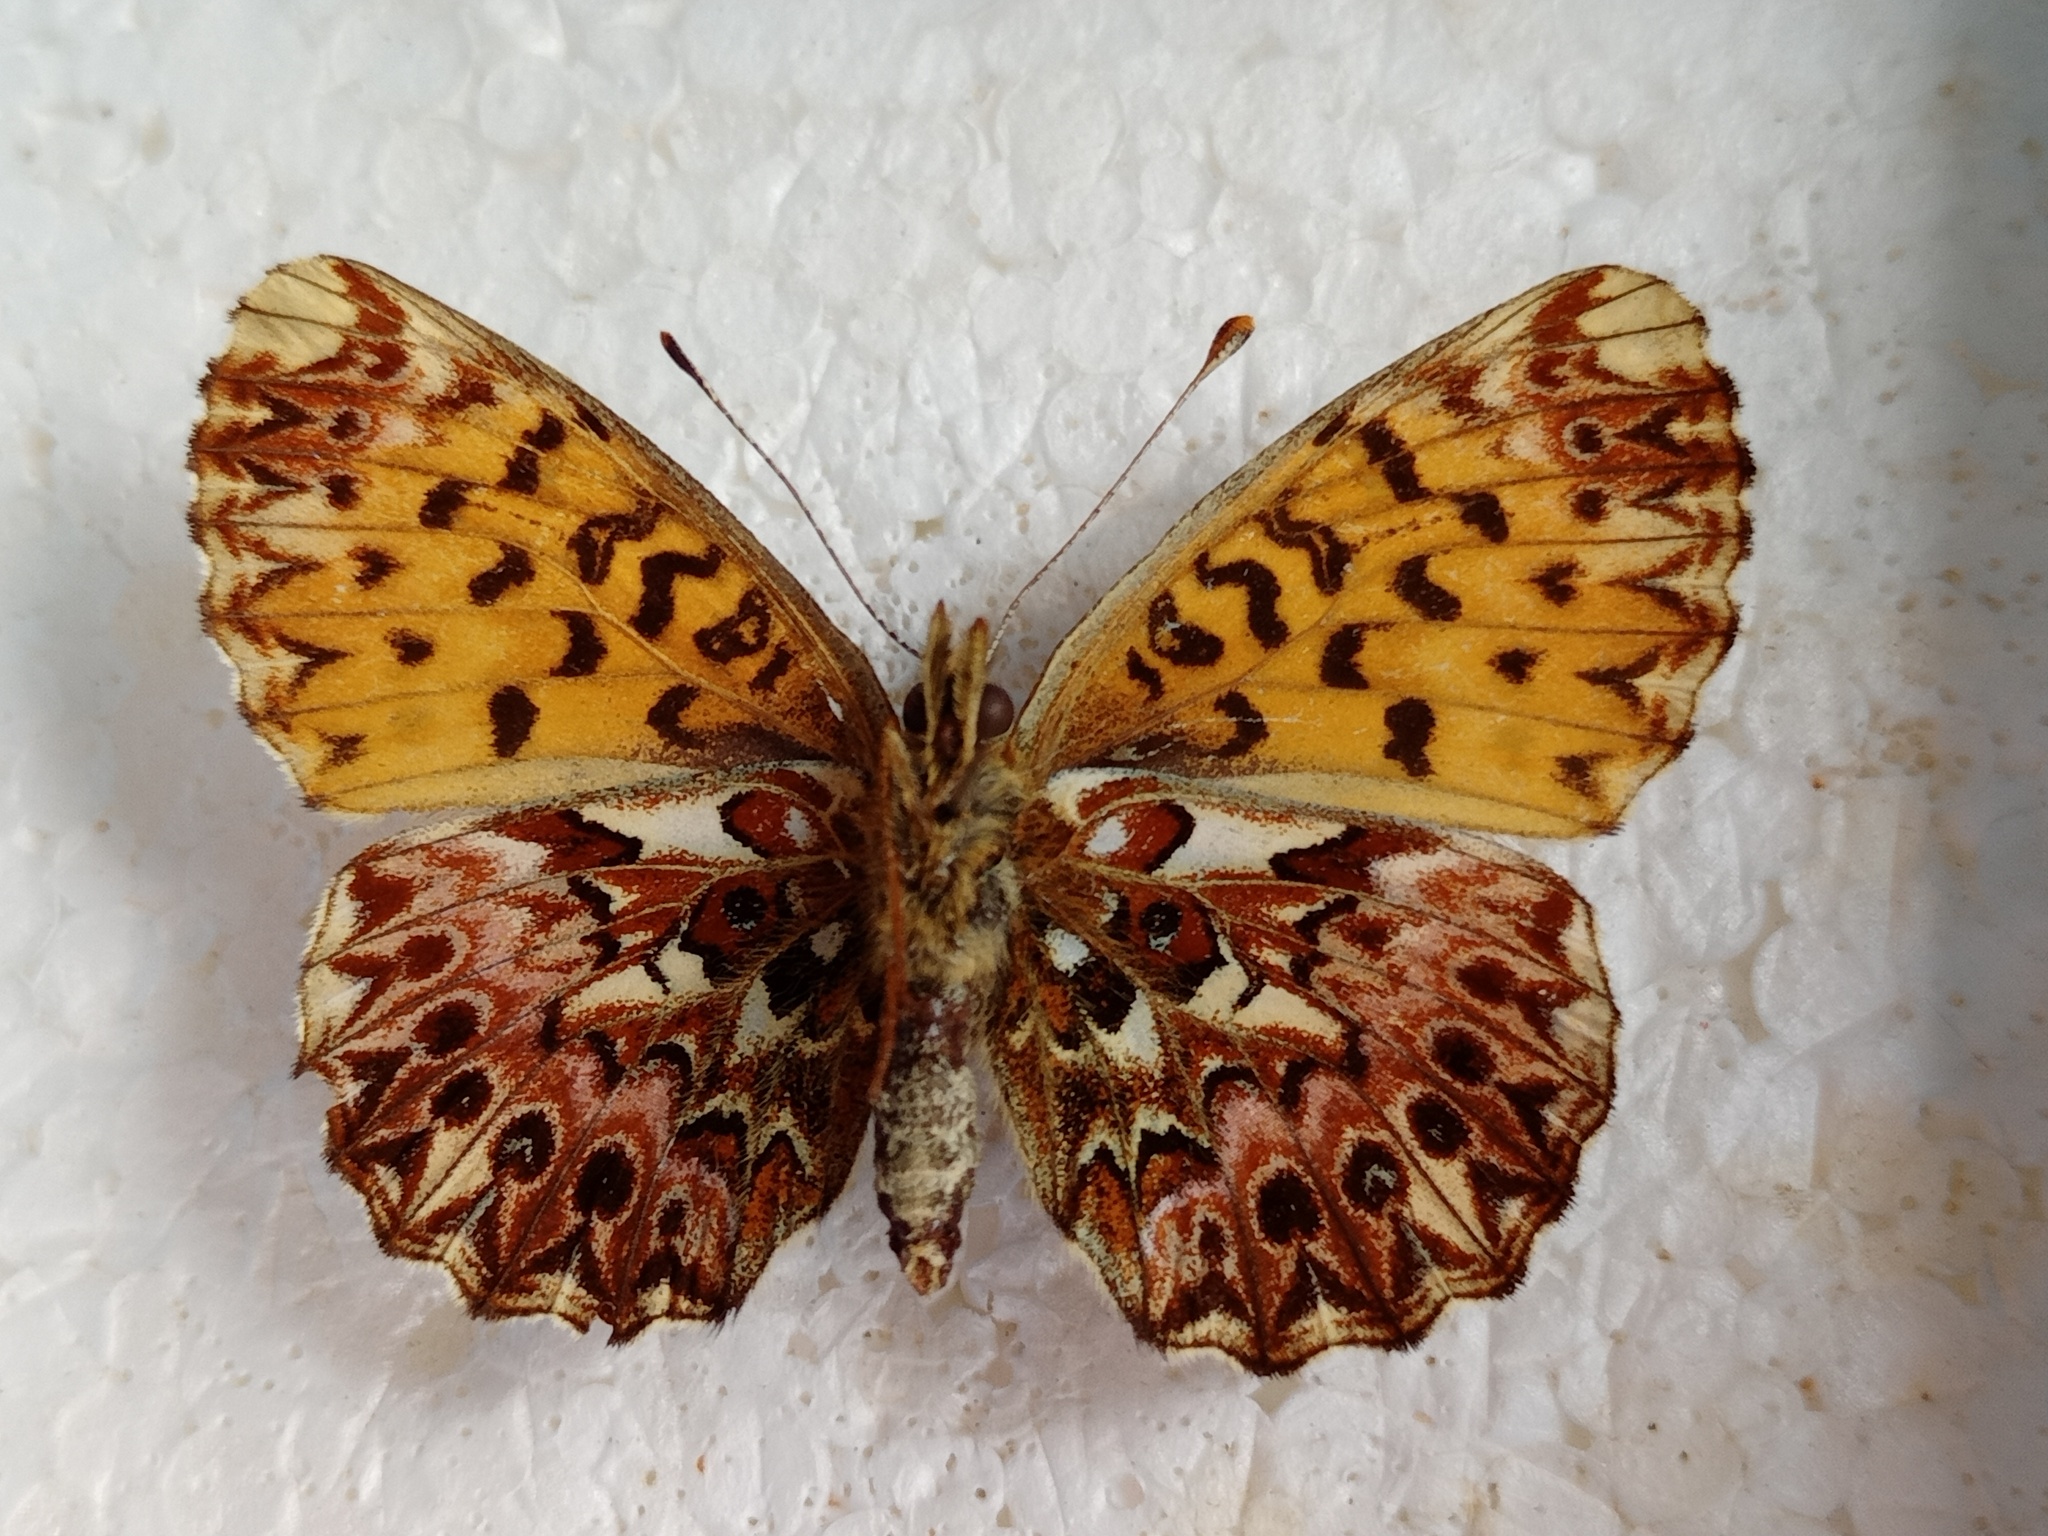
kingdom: Animalia
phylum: Arthropoda
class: Insecta
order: Lepidoptera
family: Nymphalidae
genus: Boloria
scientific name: Boloria titania
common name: Titania's fritillary
